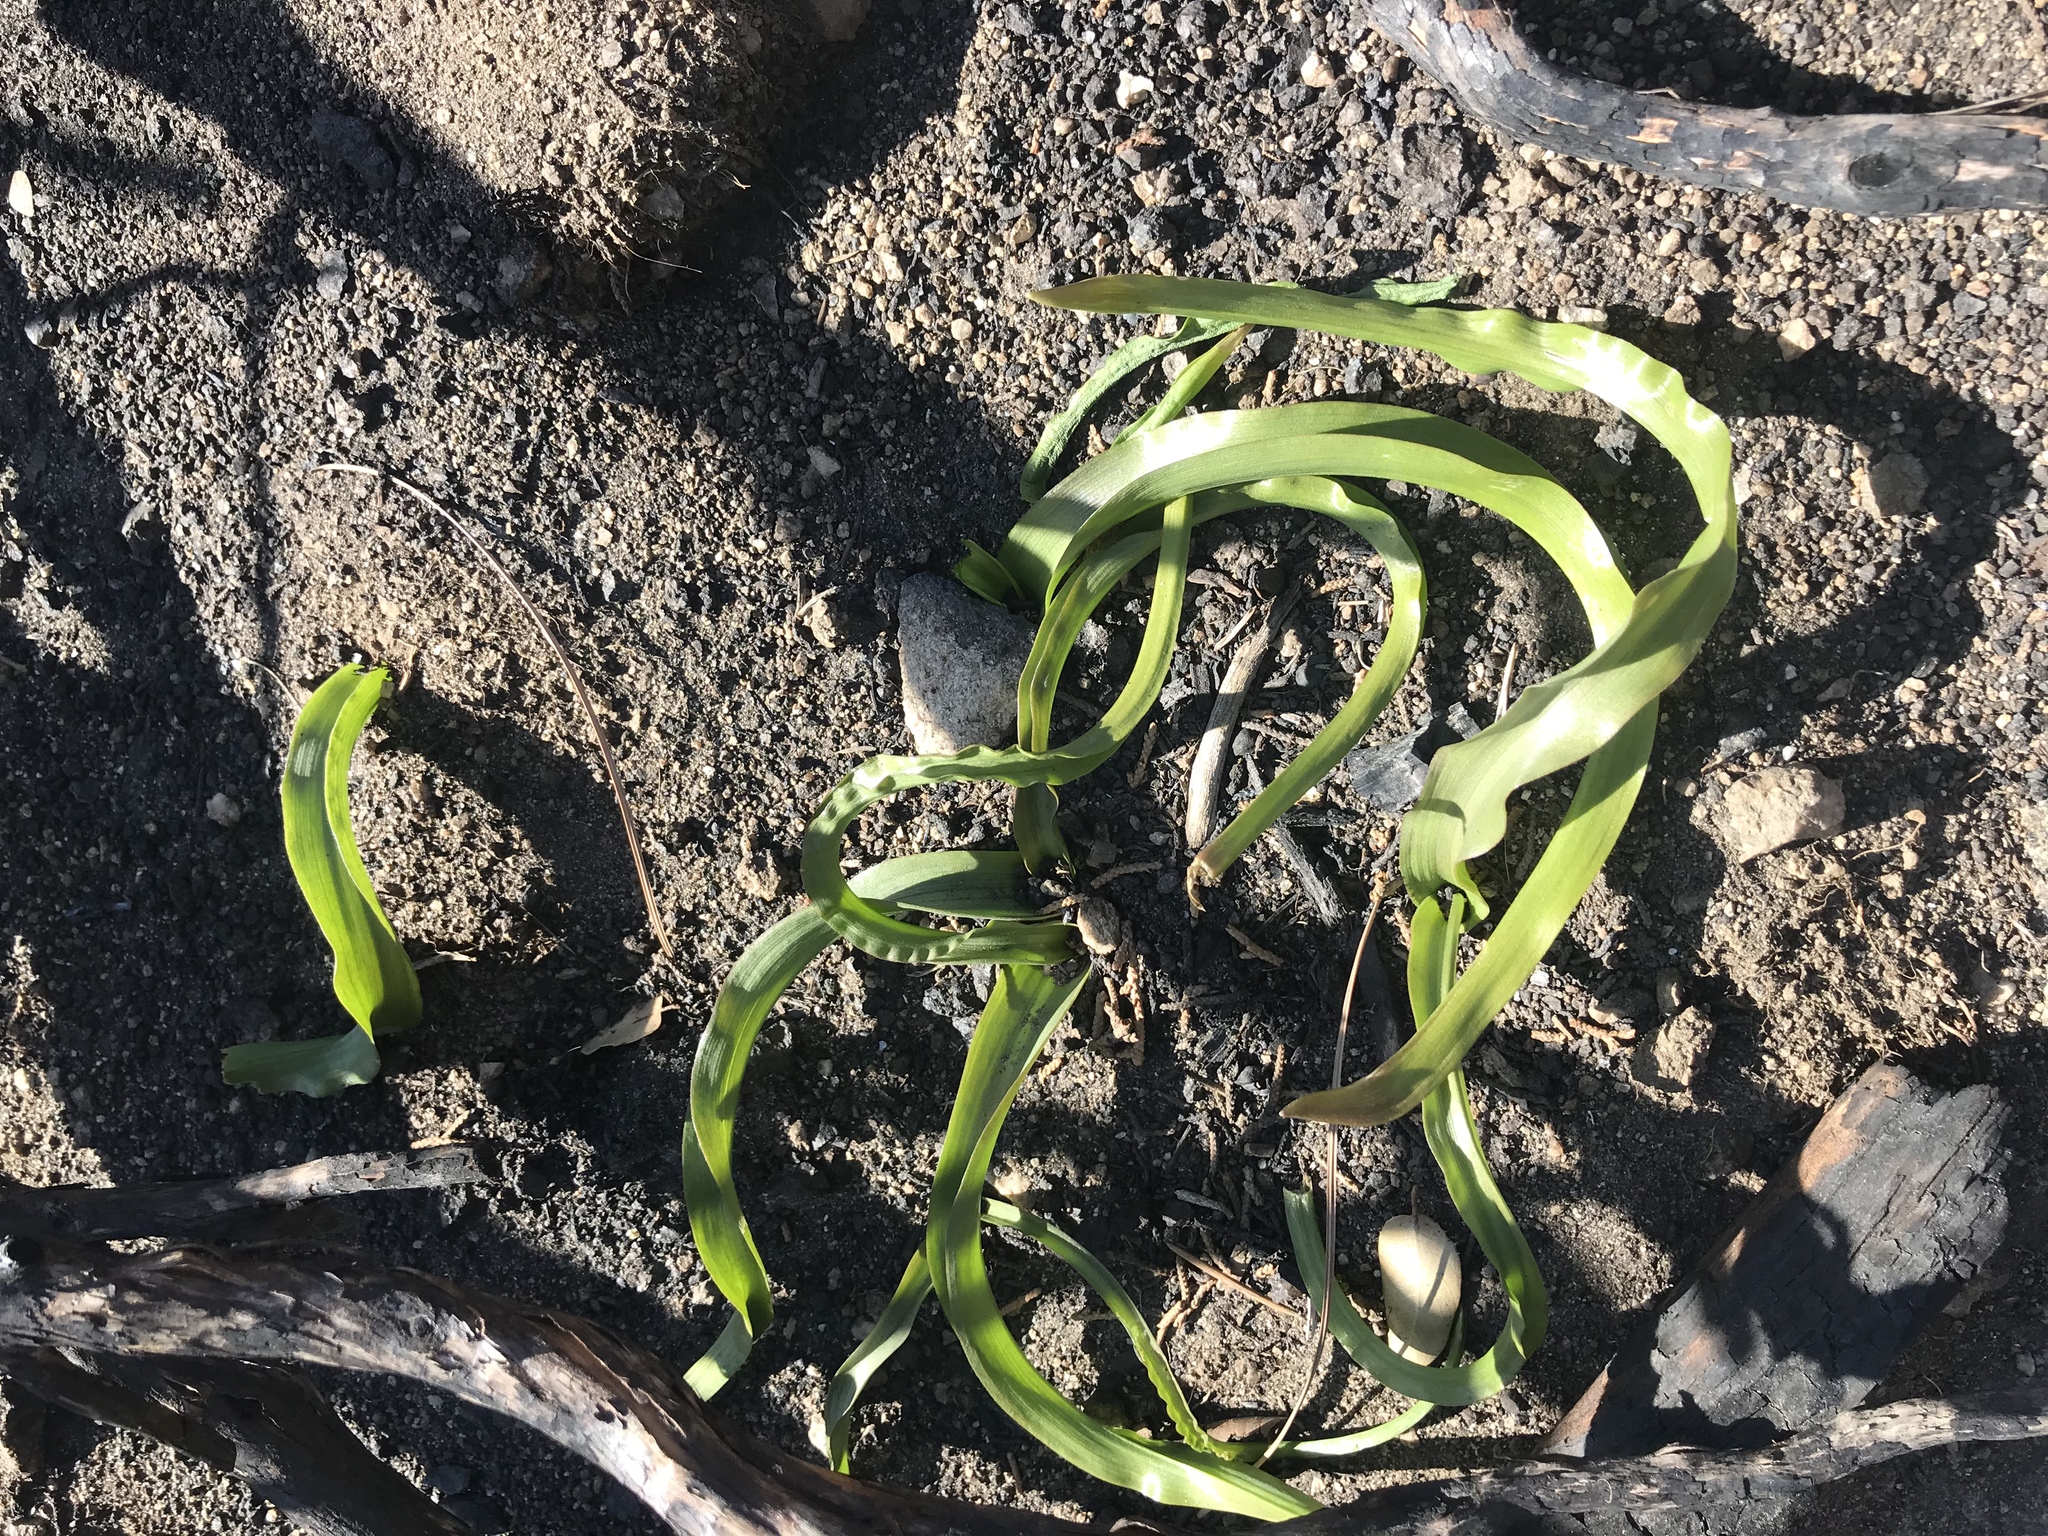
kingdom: Plantae
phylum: Tracheophyta
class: Liliopsida
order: Asparagales
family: Asparagaceae
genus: Chlorogalum
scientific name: Chlorogalum pomeridianum
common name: Amole
